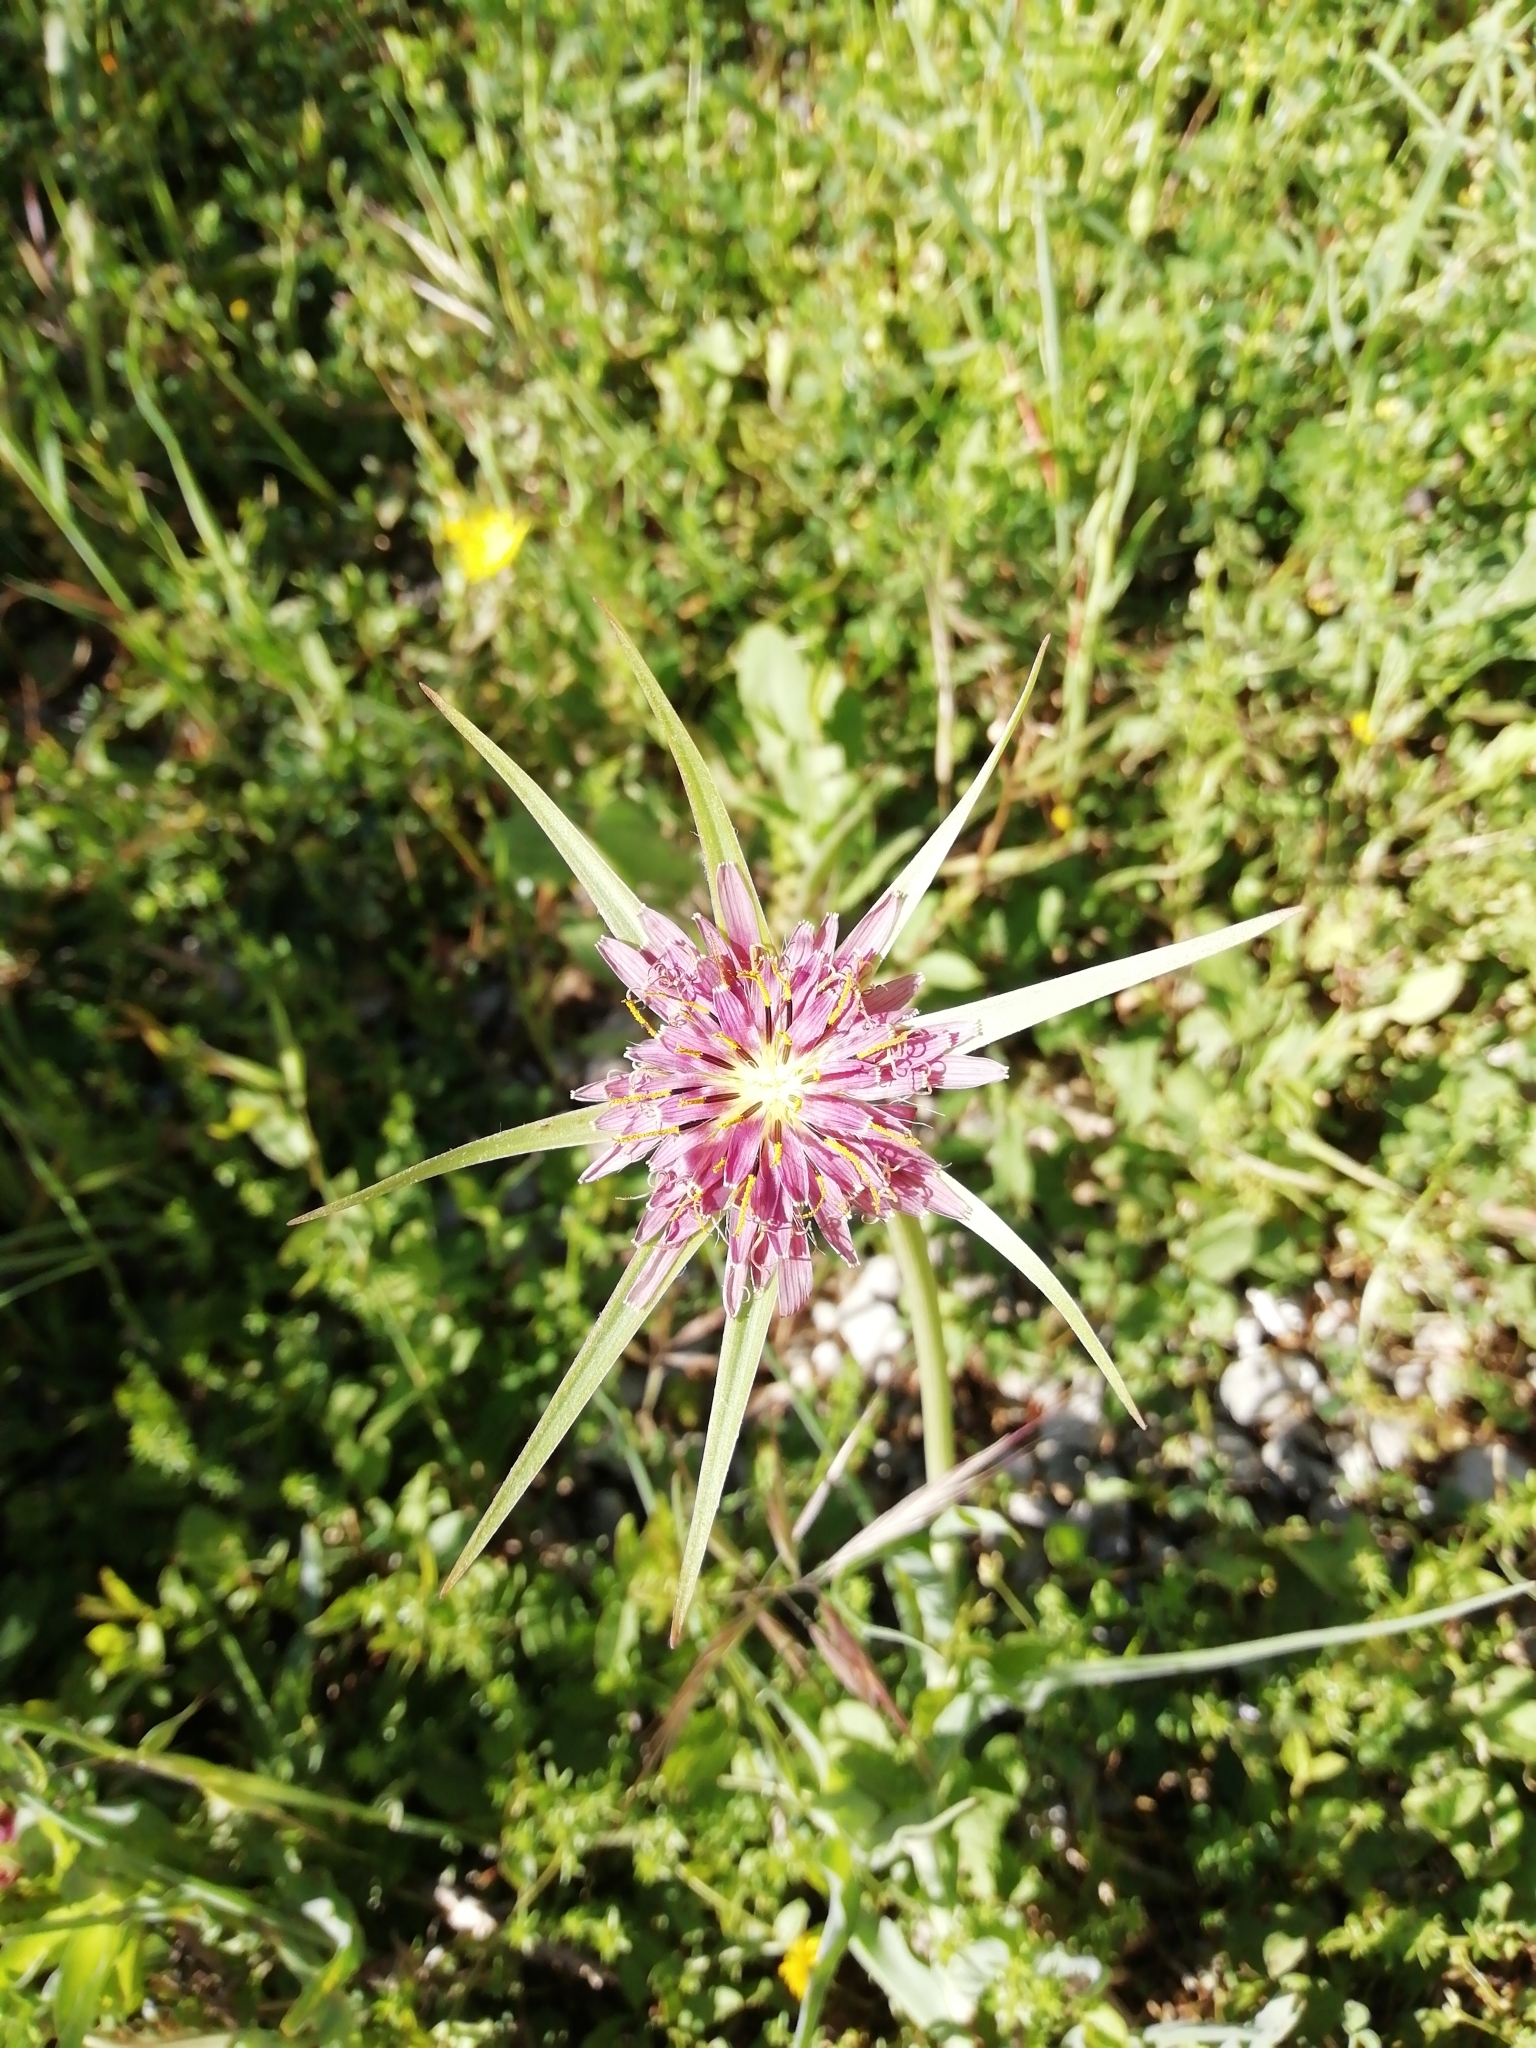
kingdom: Plantae
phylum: Tracheophyta
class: Magnoliopsida
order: Asterales
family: Asteraceae
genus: Tragopogon
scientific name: Tragopogon porrifolius
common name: Salsify
